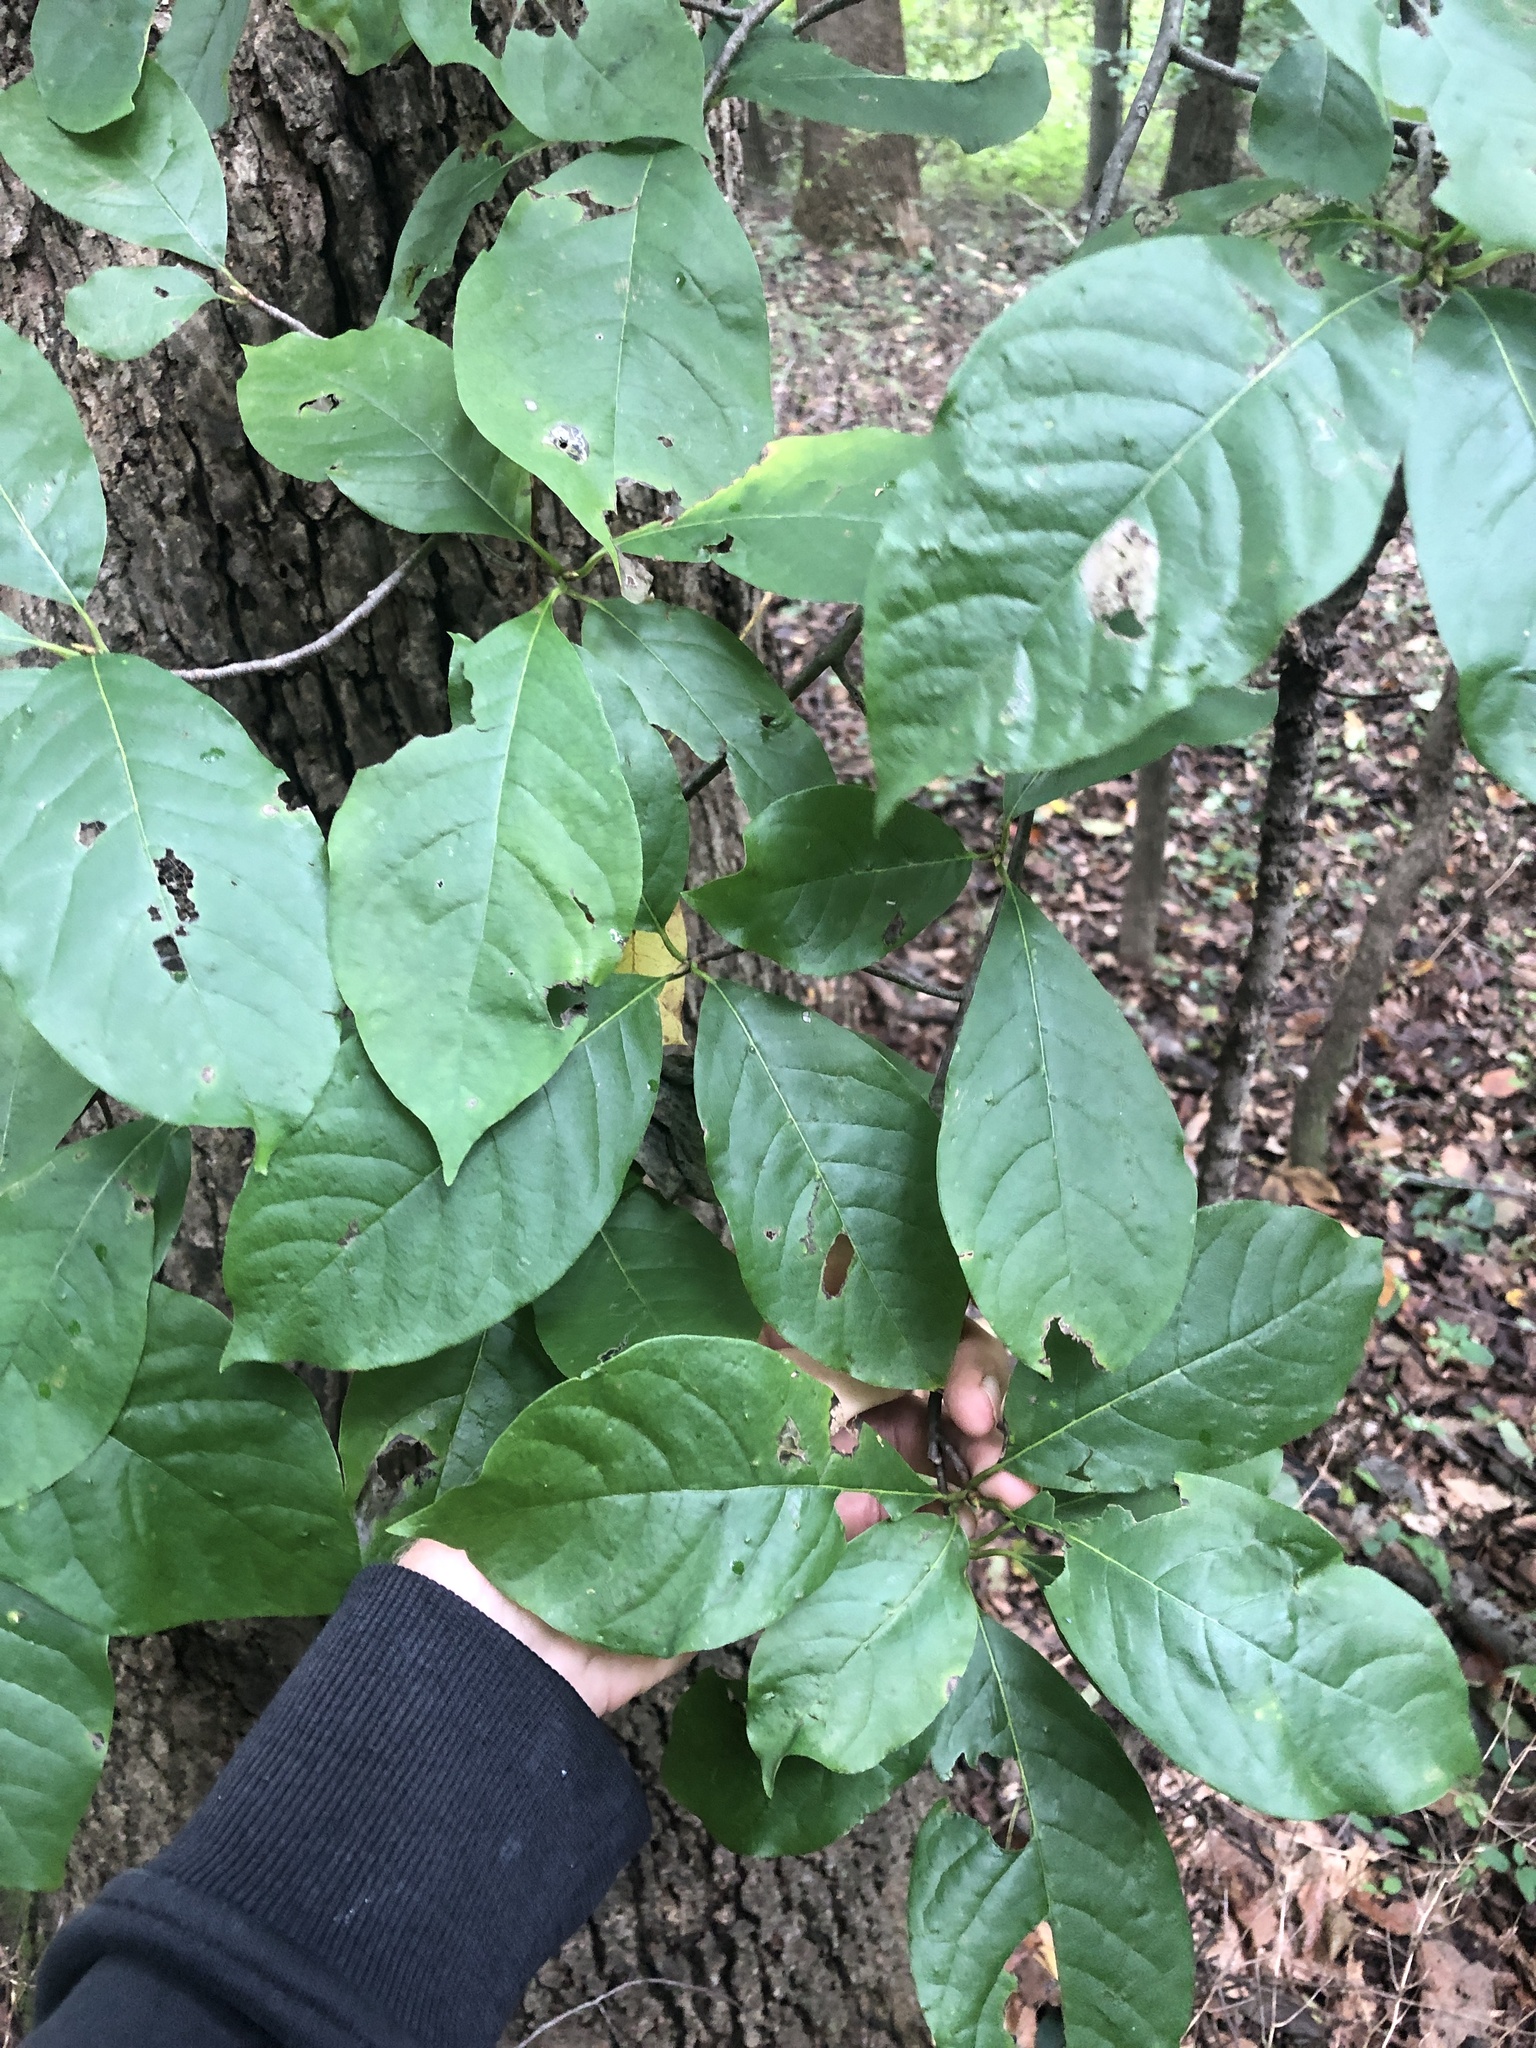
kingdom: Plantae
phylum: Tracheophyta
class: Magnoliopsida
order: Cornales
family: Nyssaceae
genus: Nyssa
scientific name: Nyssa sylvatica
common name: Black tupelo
